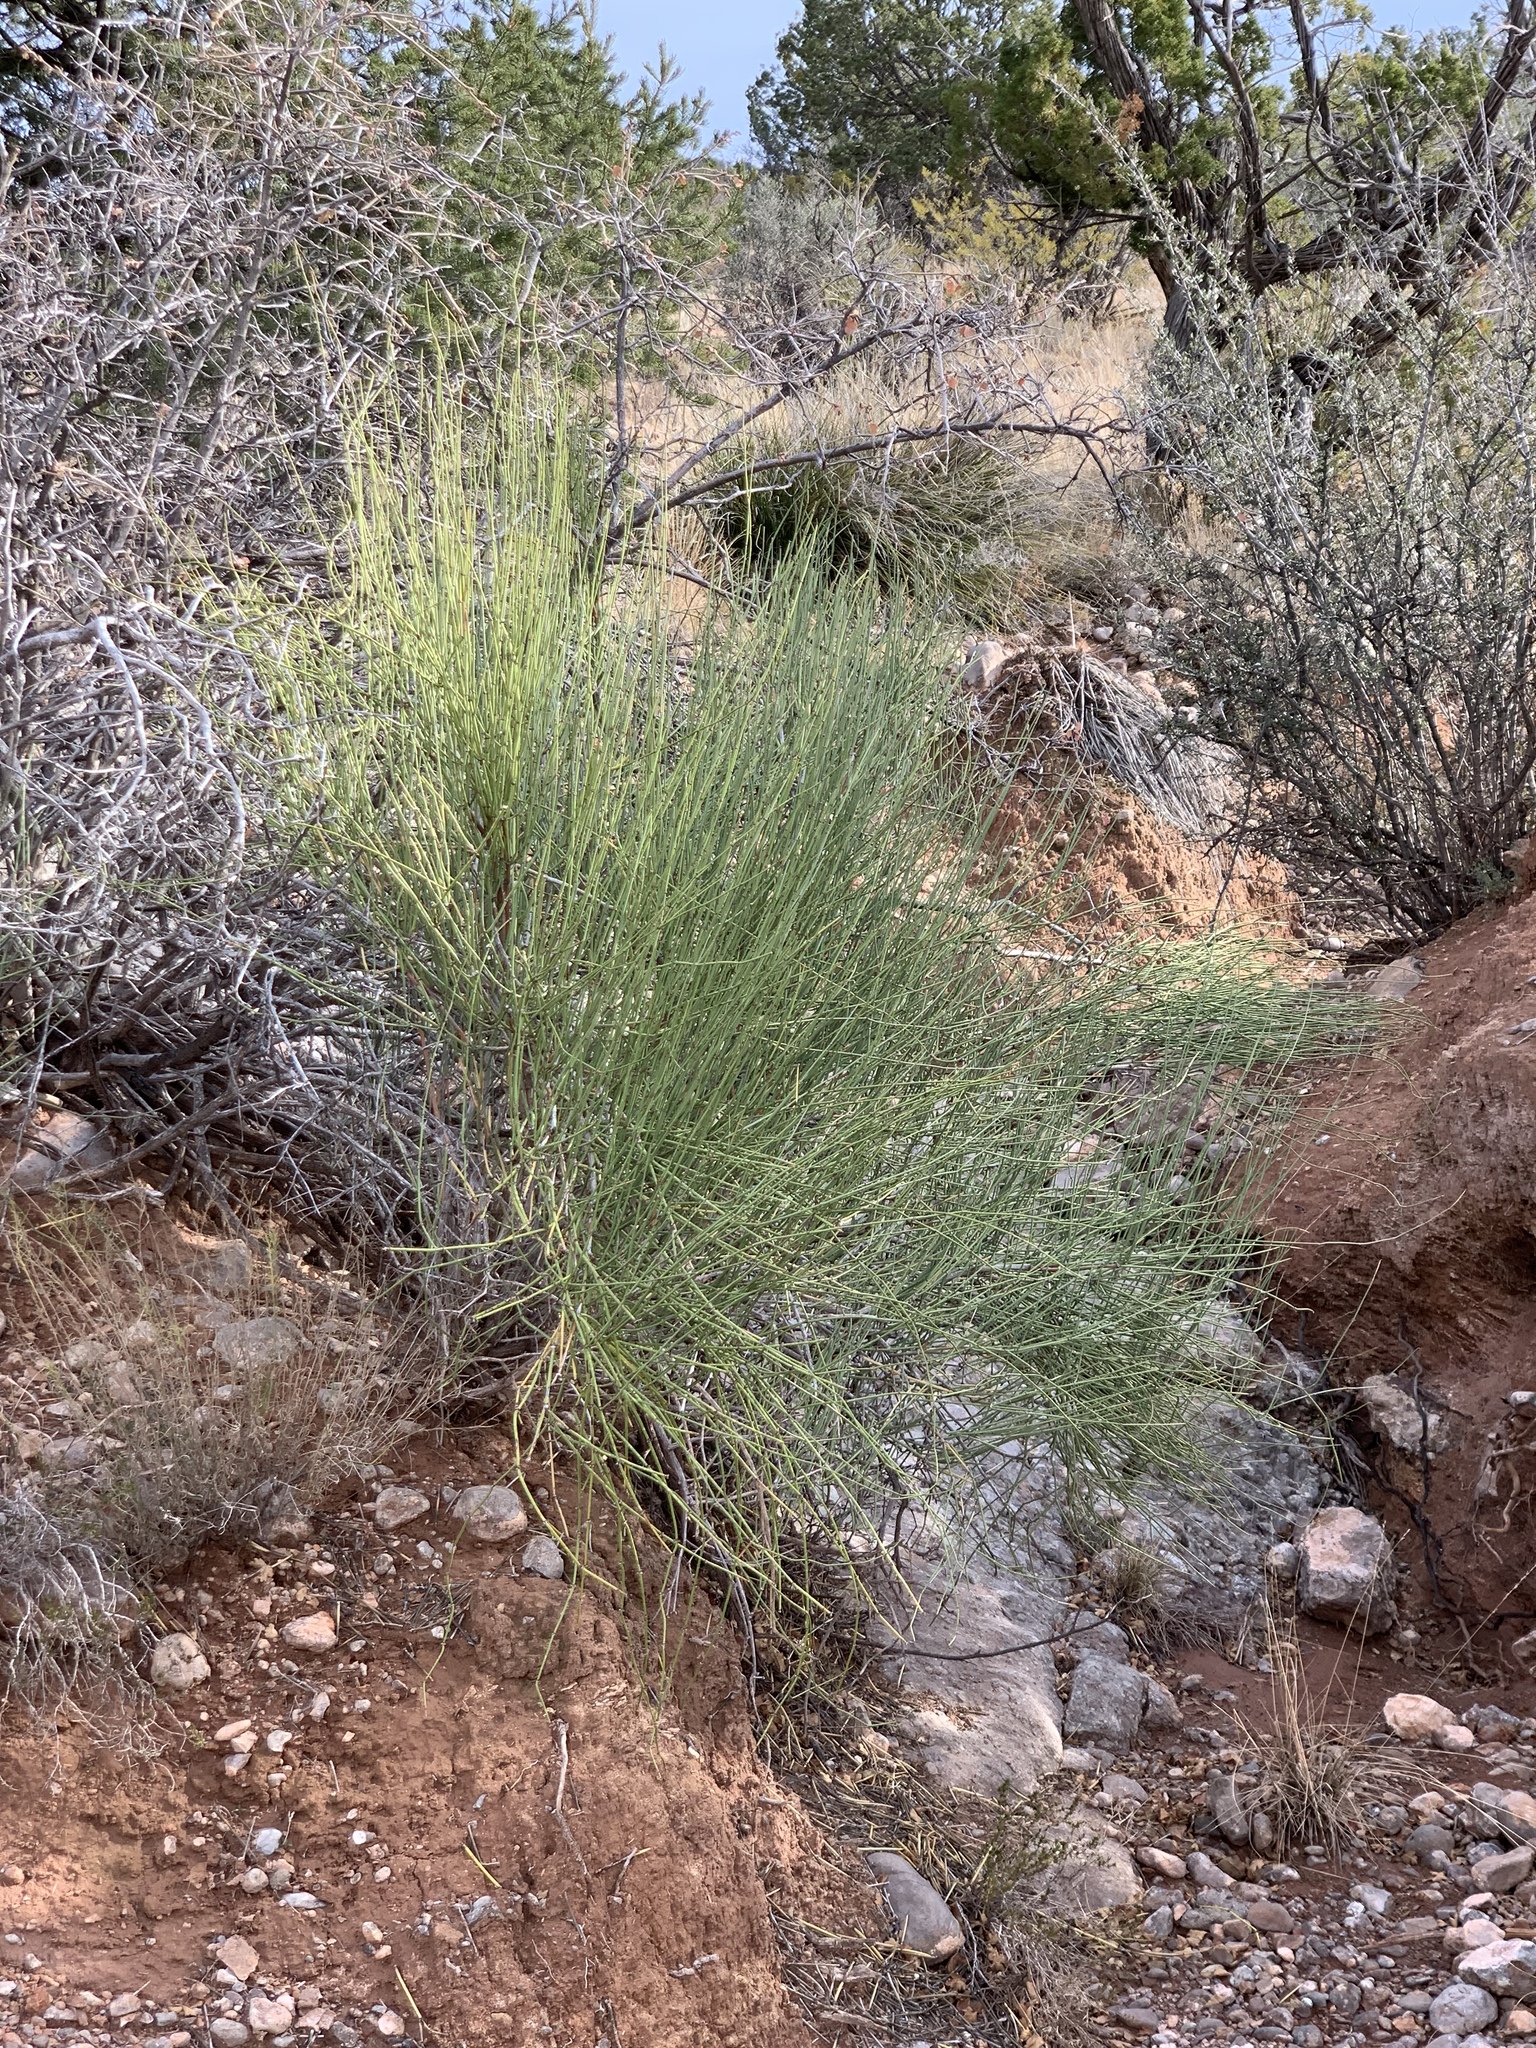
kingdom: Plantae
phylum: Tracheophyta
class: Gnetopsida
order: Ephedrales
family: Ephedraceae
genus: Ephedra
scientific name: Ephedra trifurca
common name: Mexican-tea
